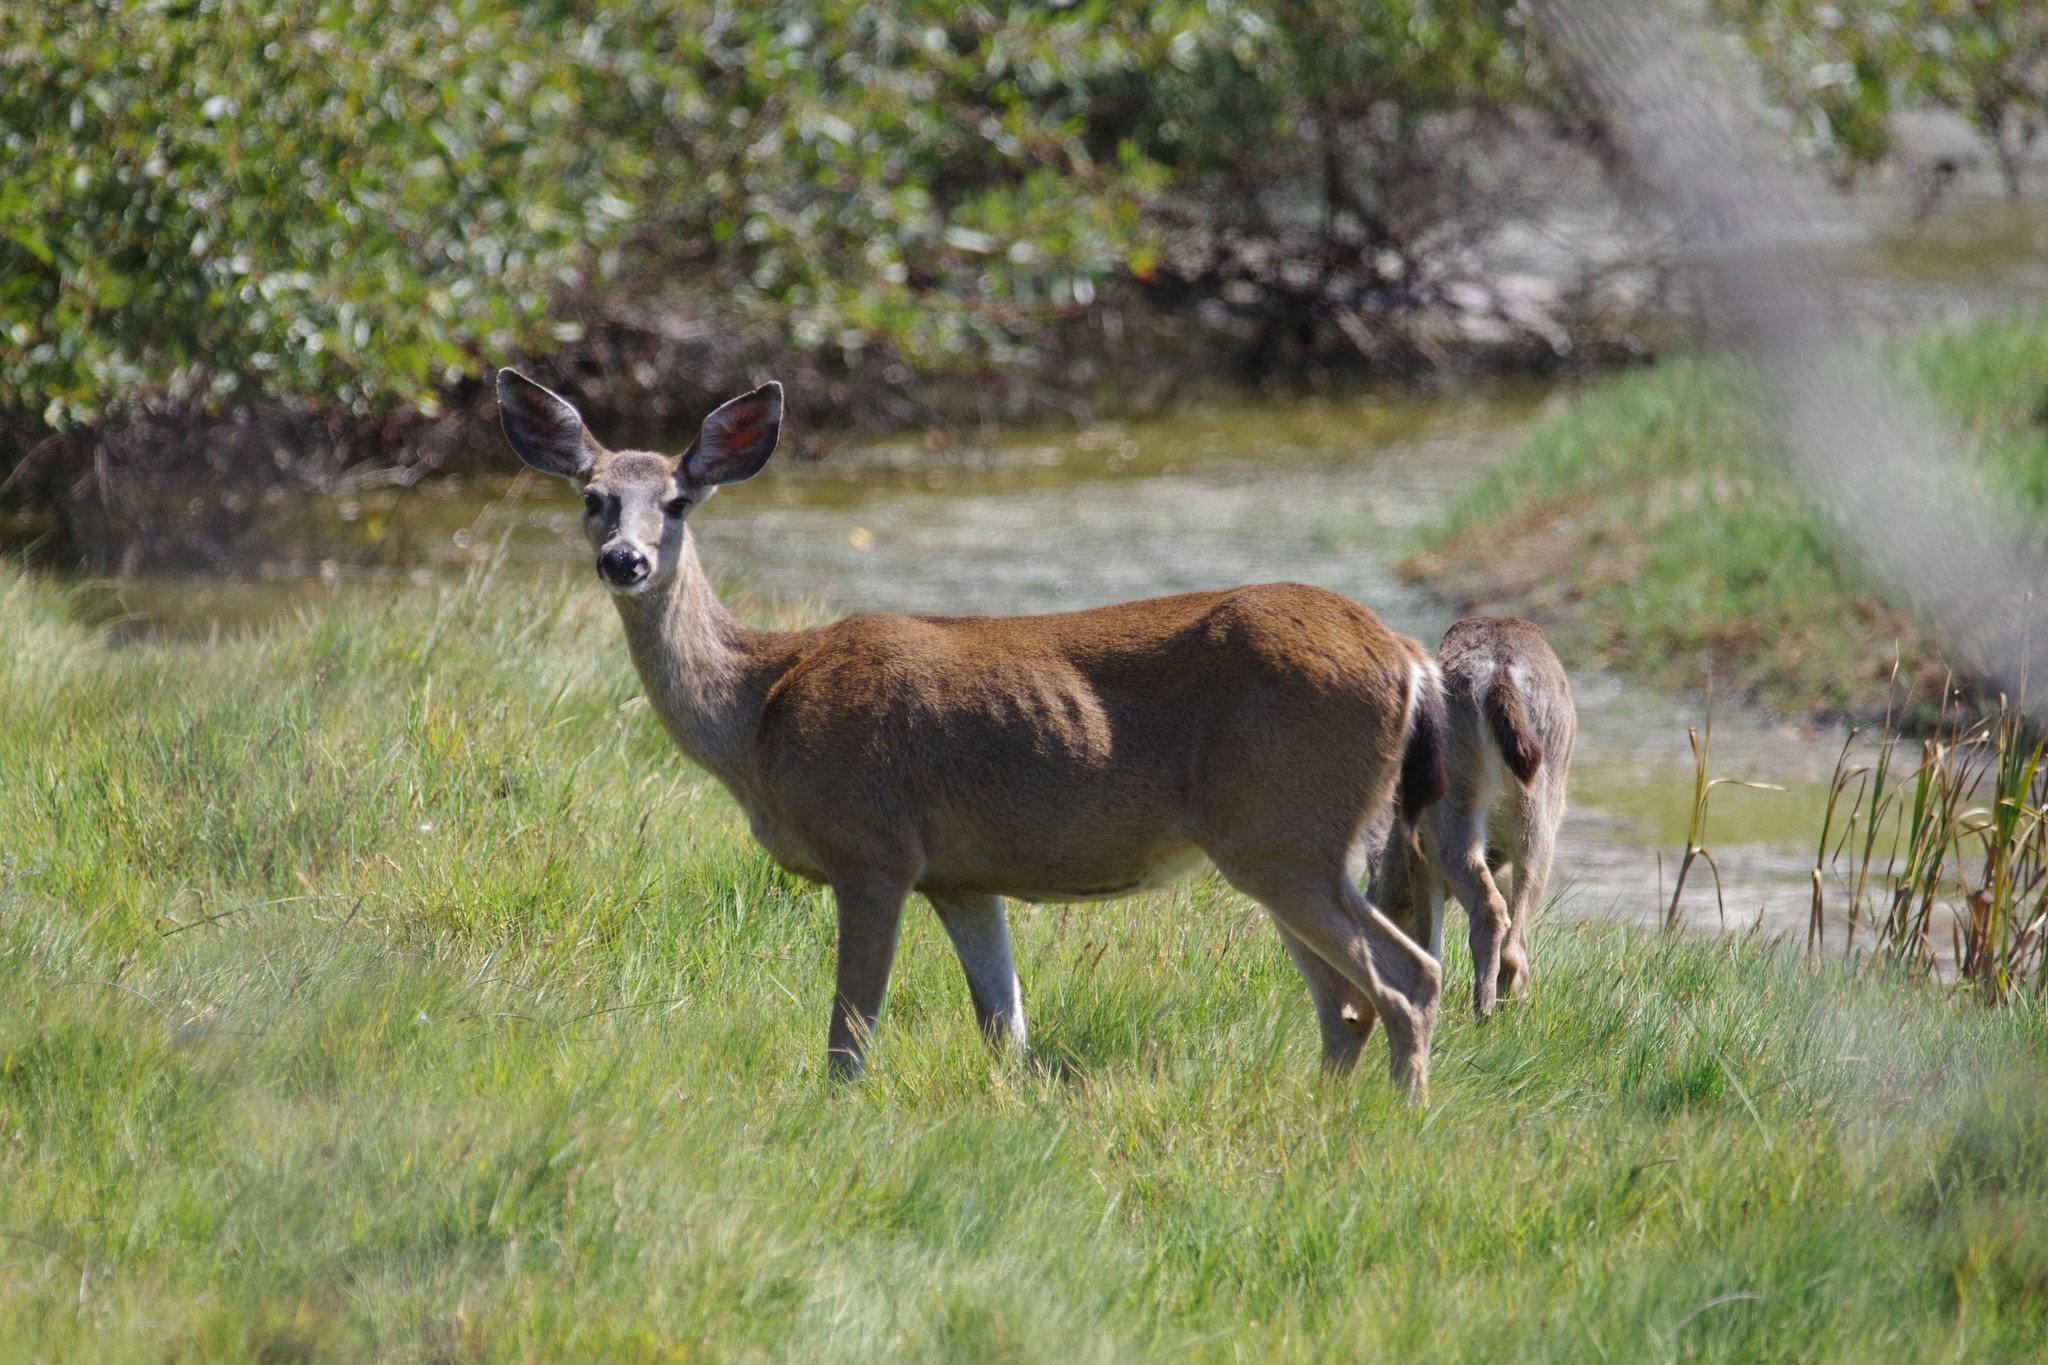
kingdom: Animalia
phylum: Chordata
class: Mammalia
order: Artiodactyla
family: Cervidae
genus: Odocoileus
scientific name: Odocoileus hemionus
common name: Mule deer
